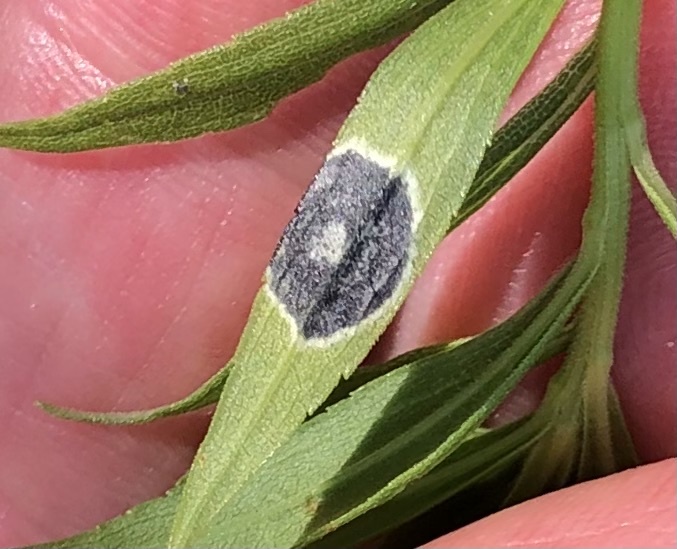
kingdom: Animalia
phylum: Arthropoda
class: Insecta
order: Diptera
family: Cecidomyiidae
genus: Asteromyia
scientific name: Asteromyia carbonifera
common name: Carbonifera goldenrod gall midge
